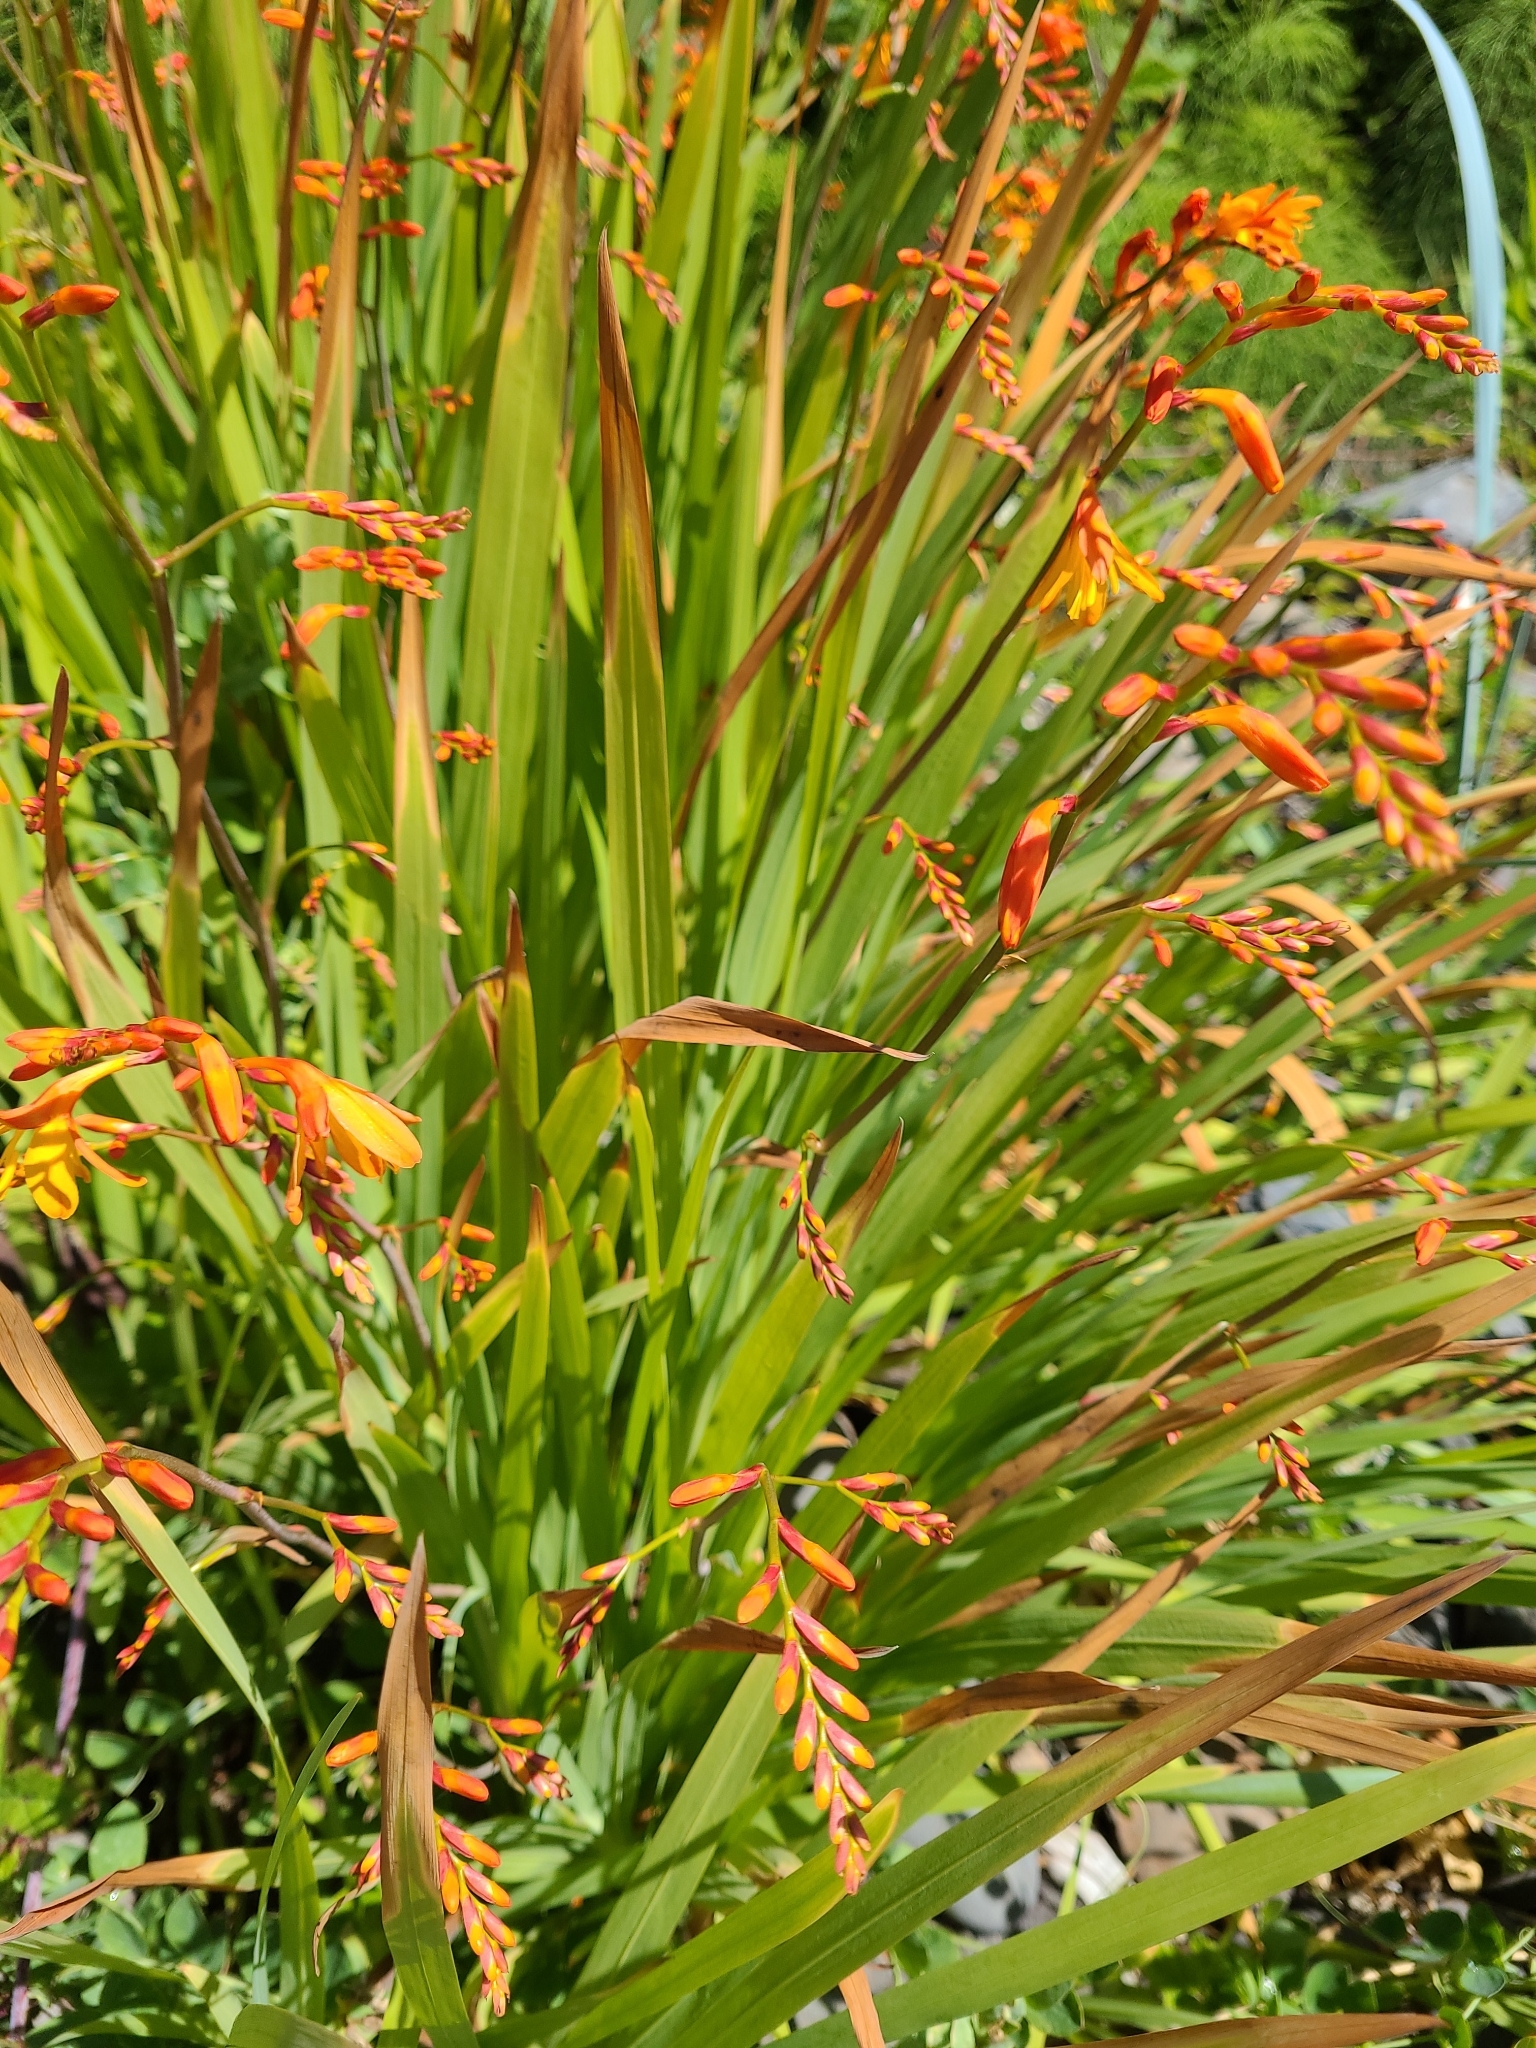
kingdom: Plantae
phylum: Tracheophyta
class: Liliopsida
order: Asparagales
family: Iridaceae
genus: Crocosmia
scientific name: Crocosmia crocosmiiflora
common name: Montbretia
